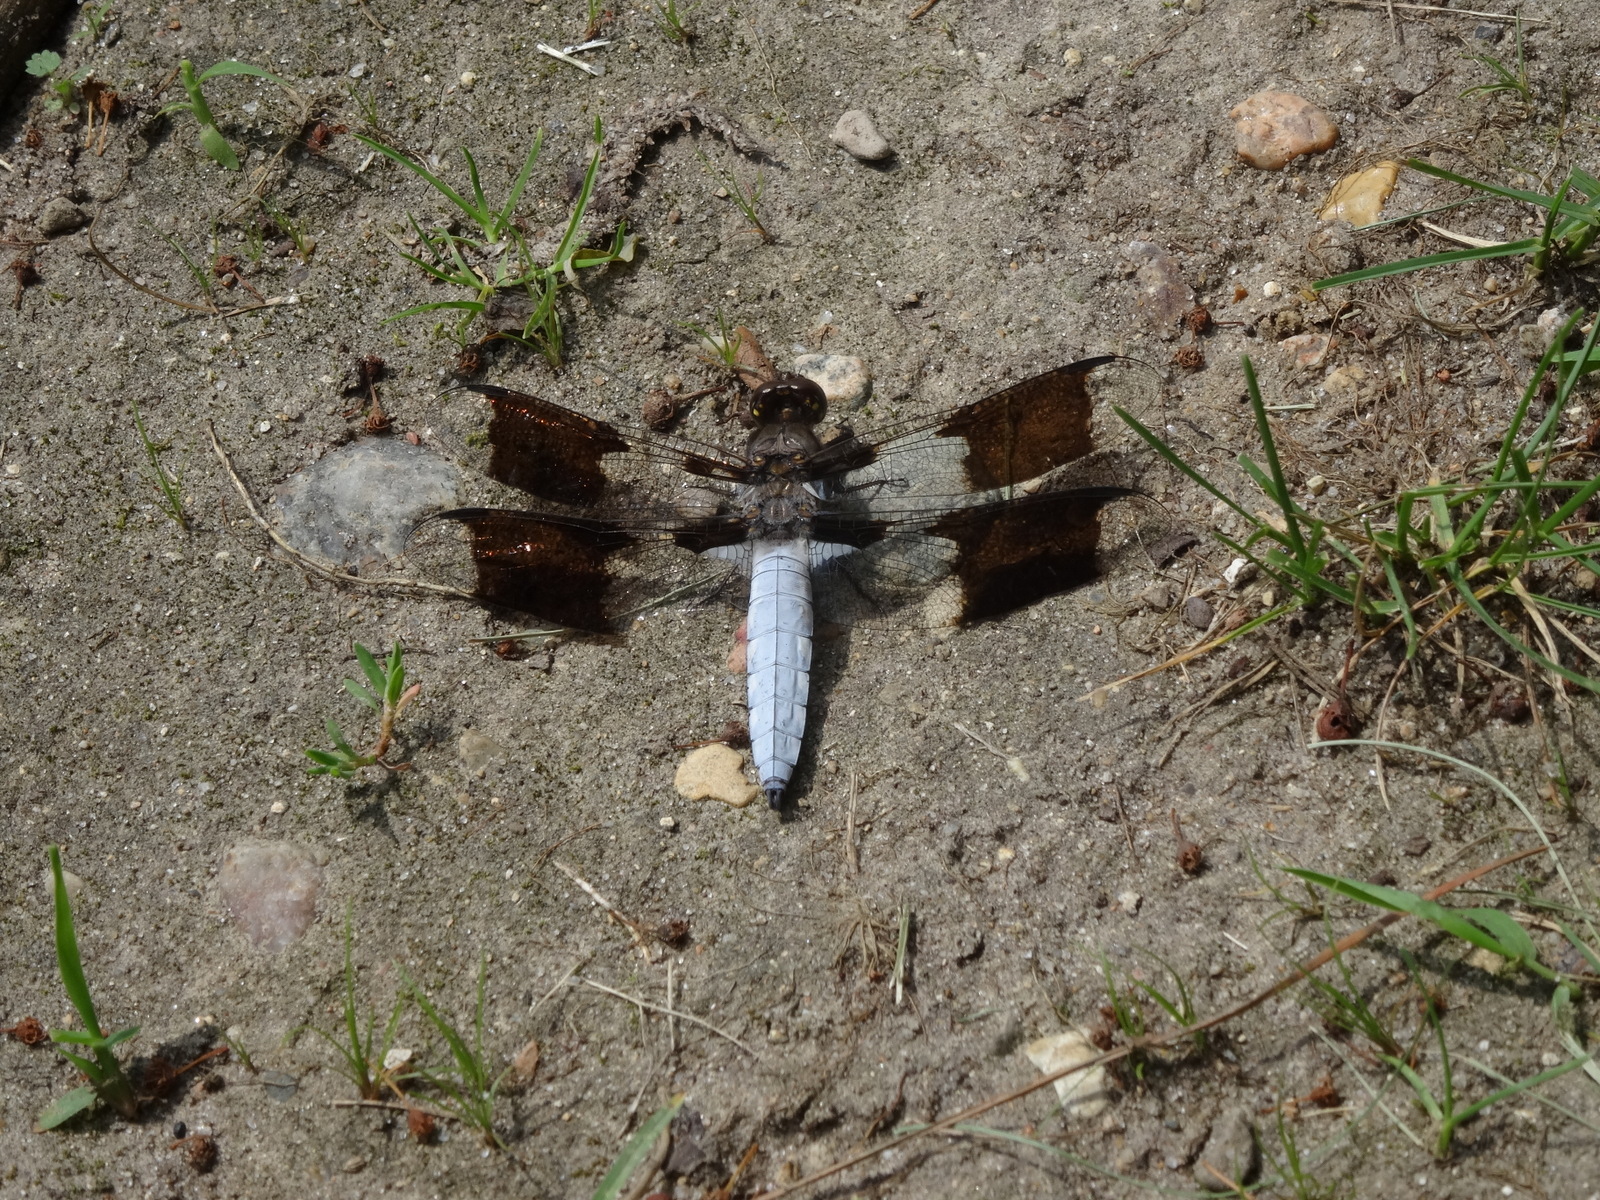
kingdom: Animalia
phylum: Arthropoda
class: Insecta
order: Odonata
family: Libellulidae
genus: Plathemis
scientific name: Plathemis lydia
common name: Common whitetail
